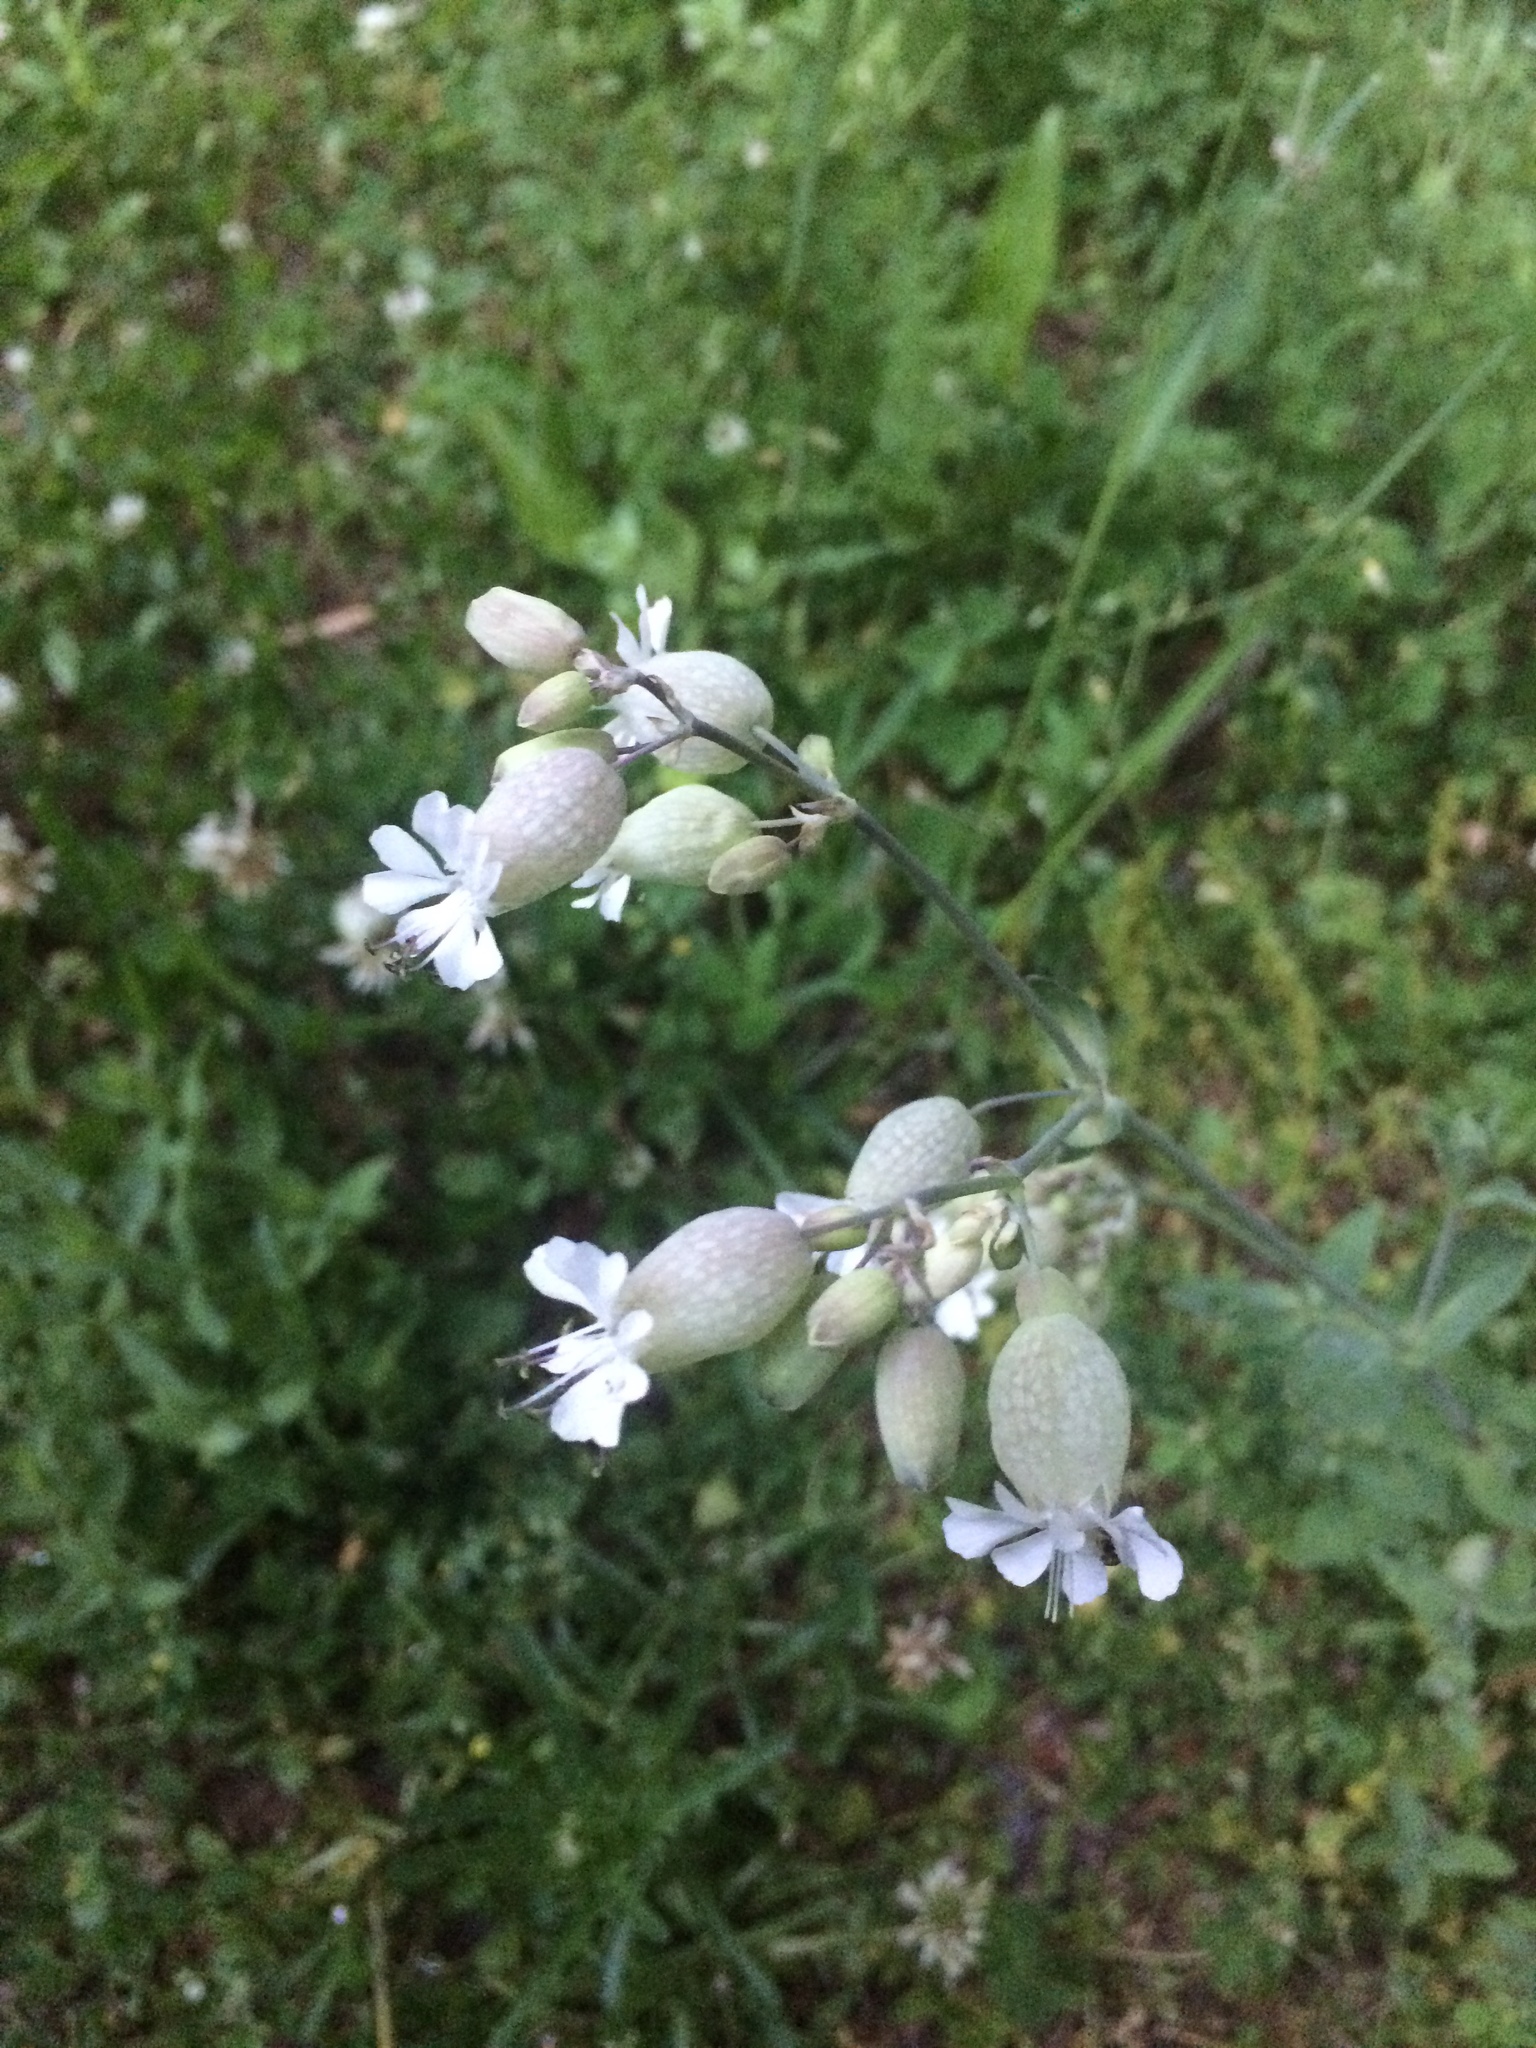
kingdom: Plantae
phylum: Tracheophyta
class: Magnoliopsida
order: Caryophyllales
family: Caryophyllaceae
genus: Silene
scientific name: Silene vulgaris
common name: Bladder campion
